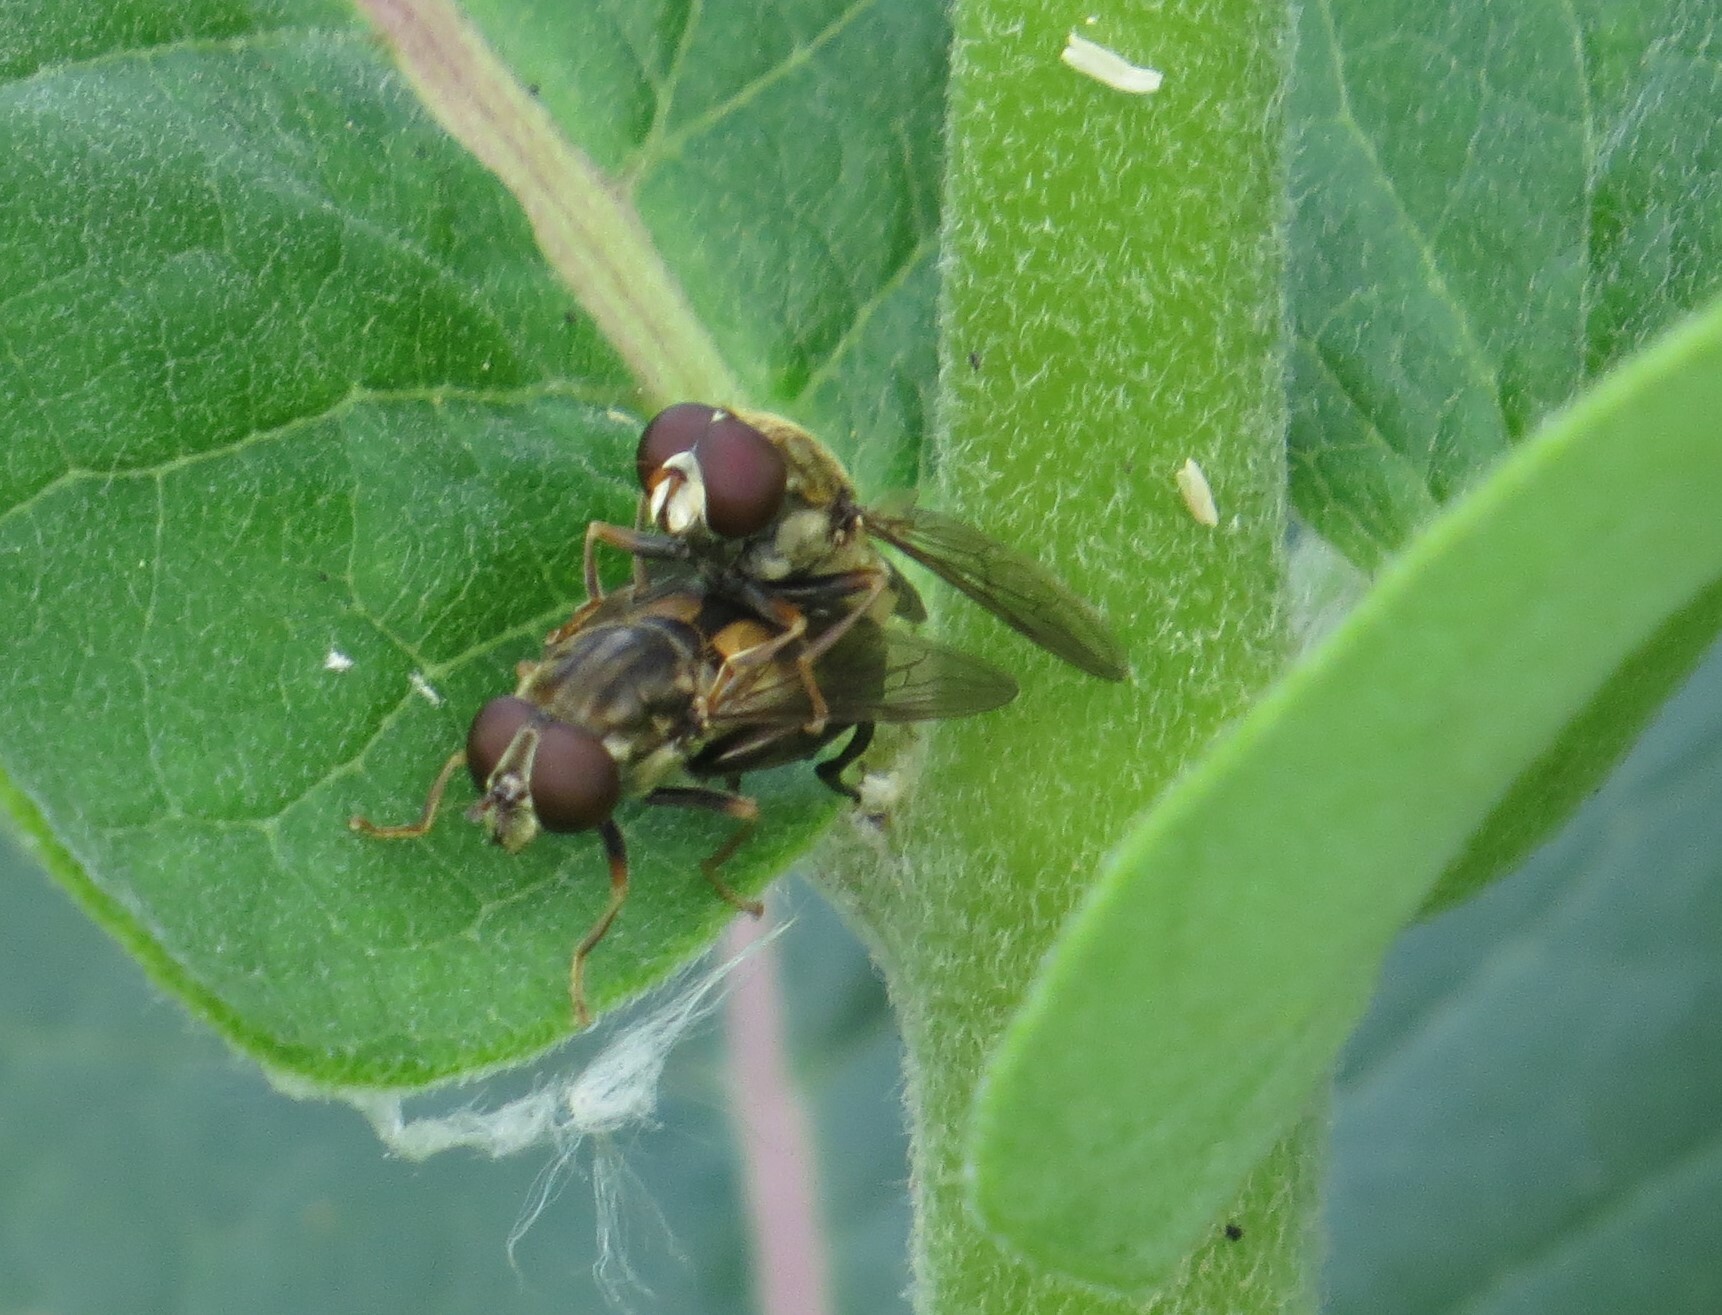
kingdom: Animalia
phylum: Arthropoda
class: Insecta
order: Diptera
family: Syrphidae
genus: Tropidia
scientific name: Tropidia quadrata
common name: Common thick-legged fly
